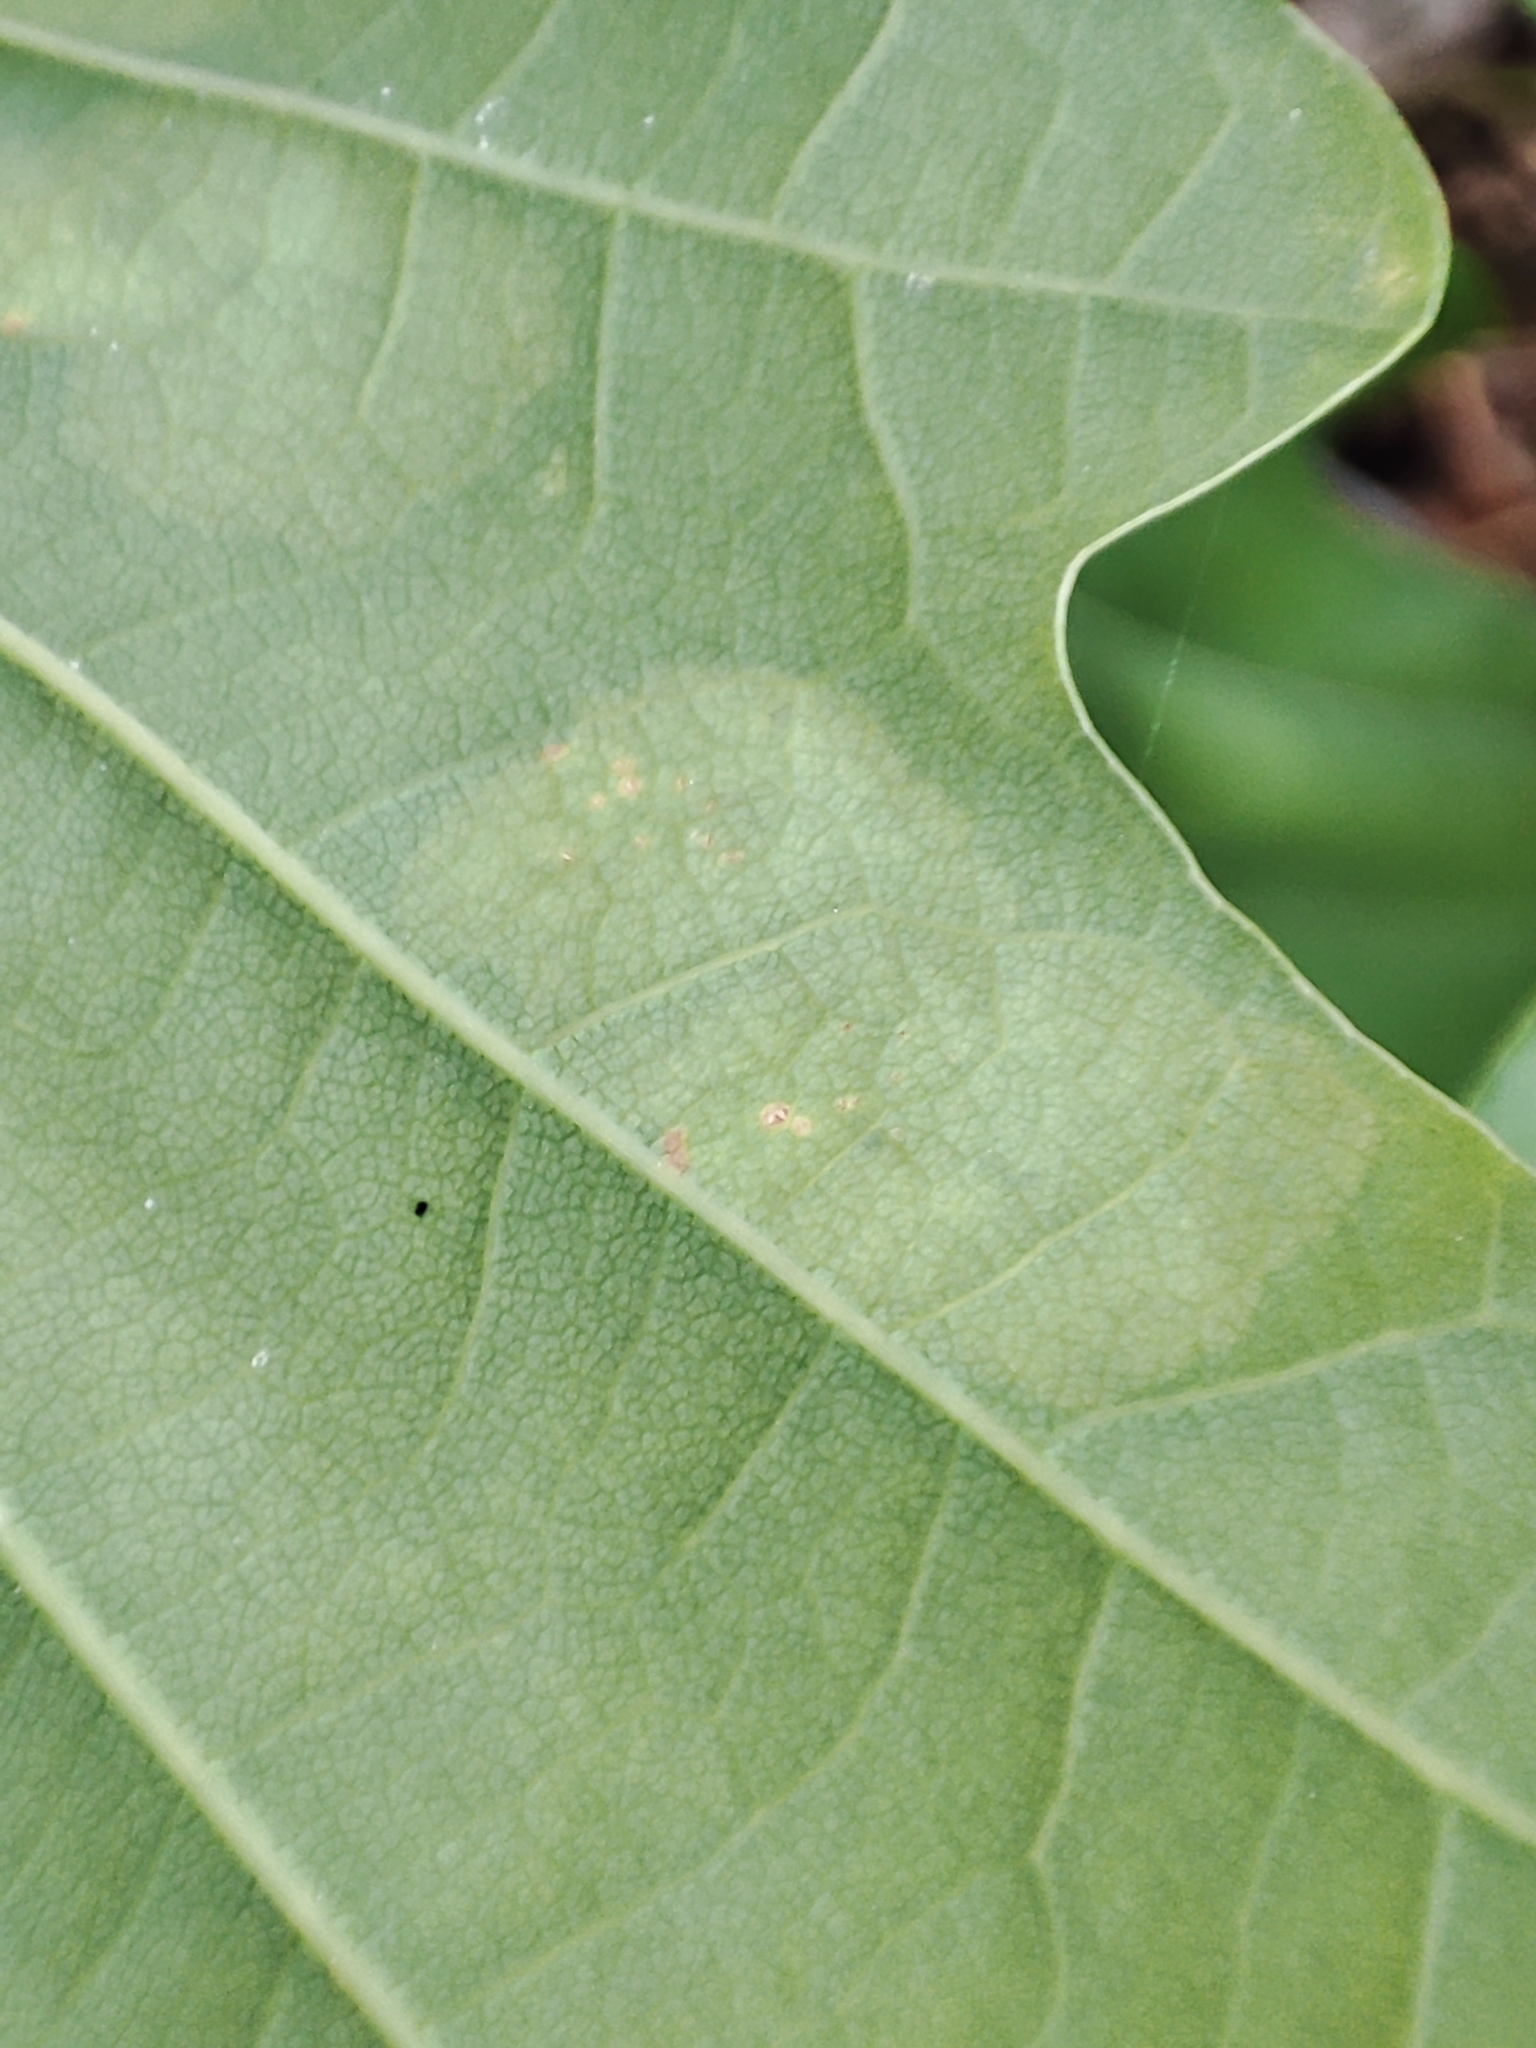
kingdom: Animalia
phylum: Arthropoda
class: Insecta
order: Lepidoptera
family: Tischeriidae
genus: Tischeria
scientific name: Tischeria ekebladella
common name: Oak carl
